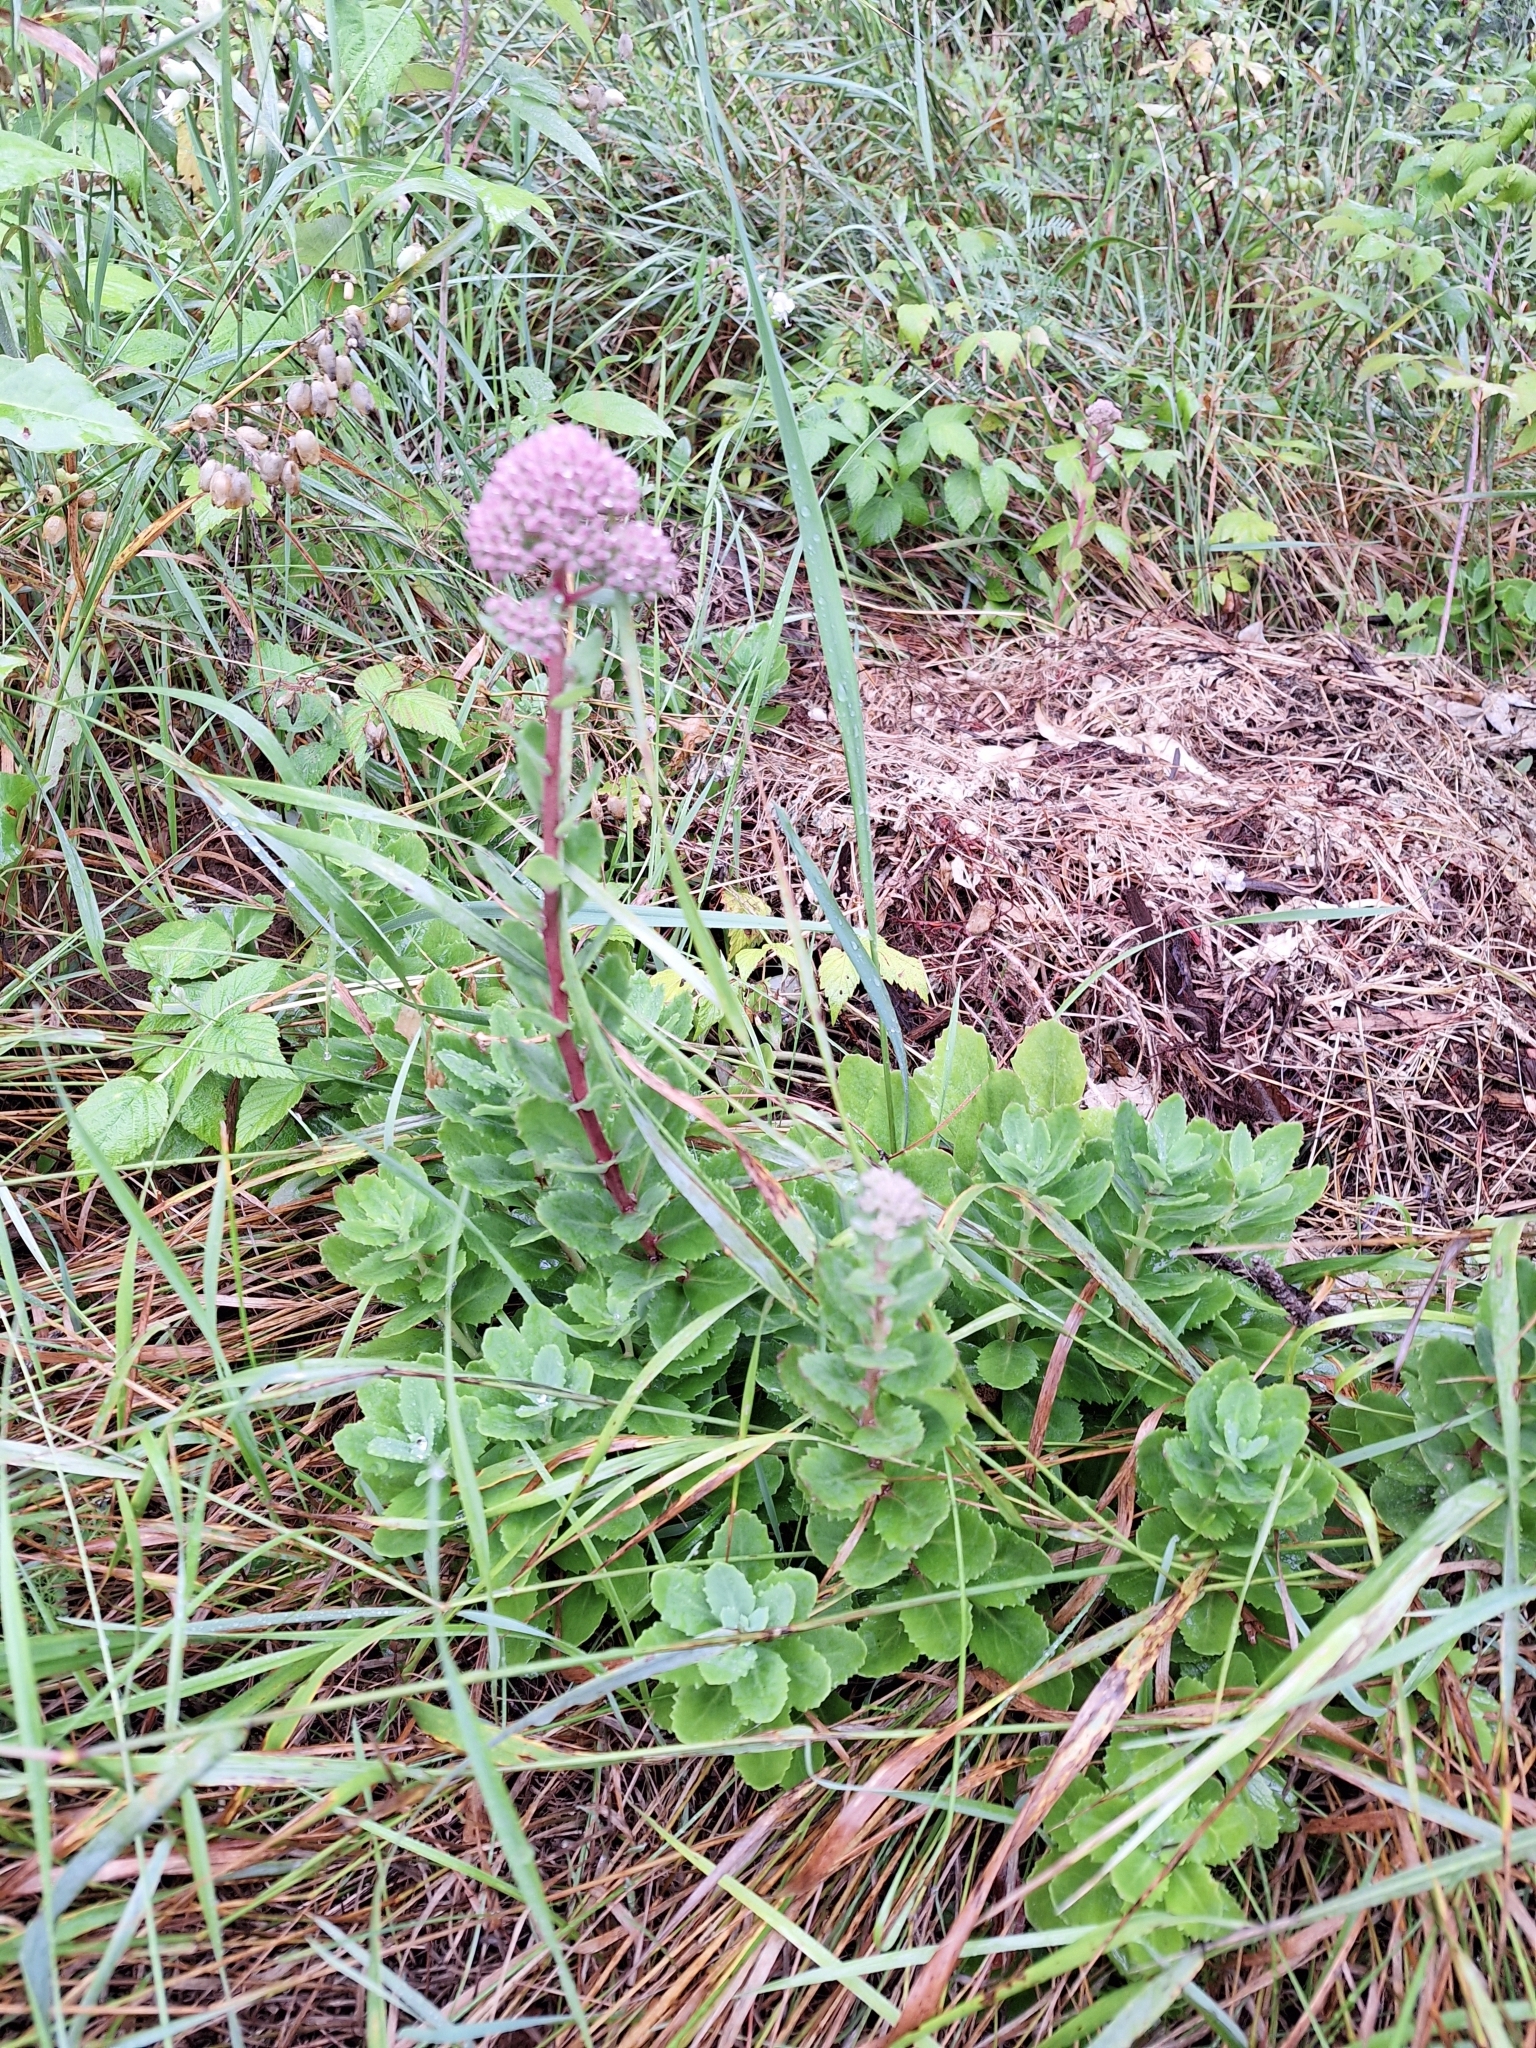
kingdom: Plantae
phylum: Tracheophyta
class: Magnoliopsida
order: Saxifragales
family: Crassulaceae
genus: Hylotelephium
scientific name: Hylotelephium telephium
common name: Live-forever
